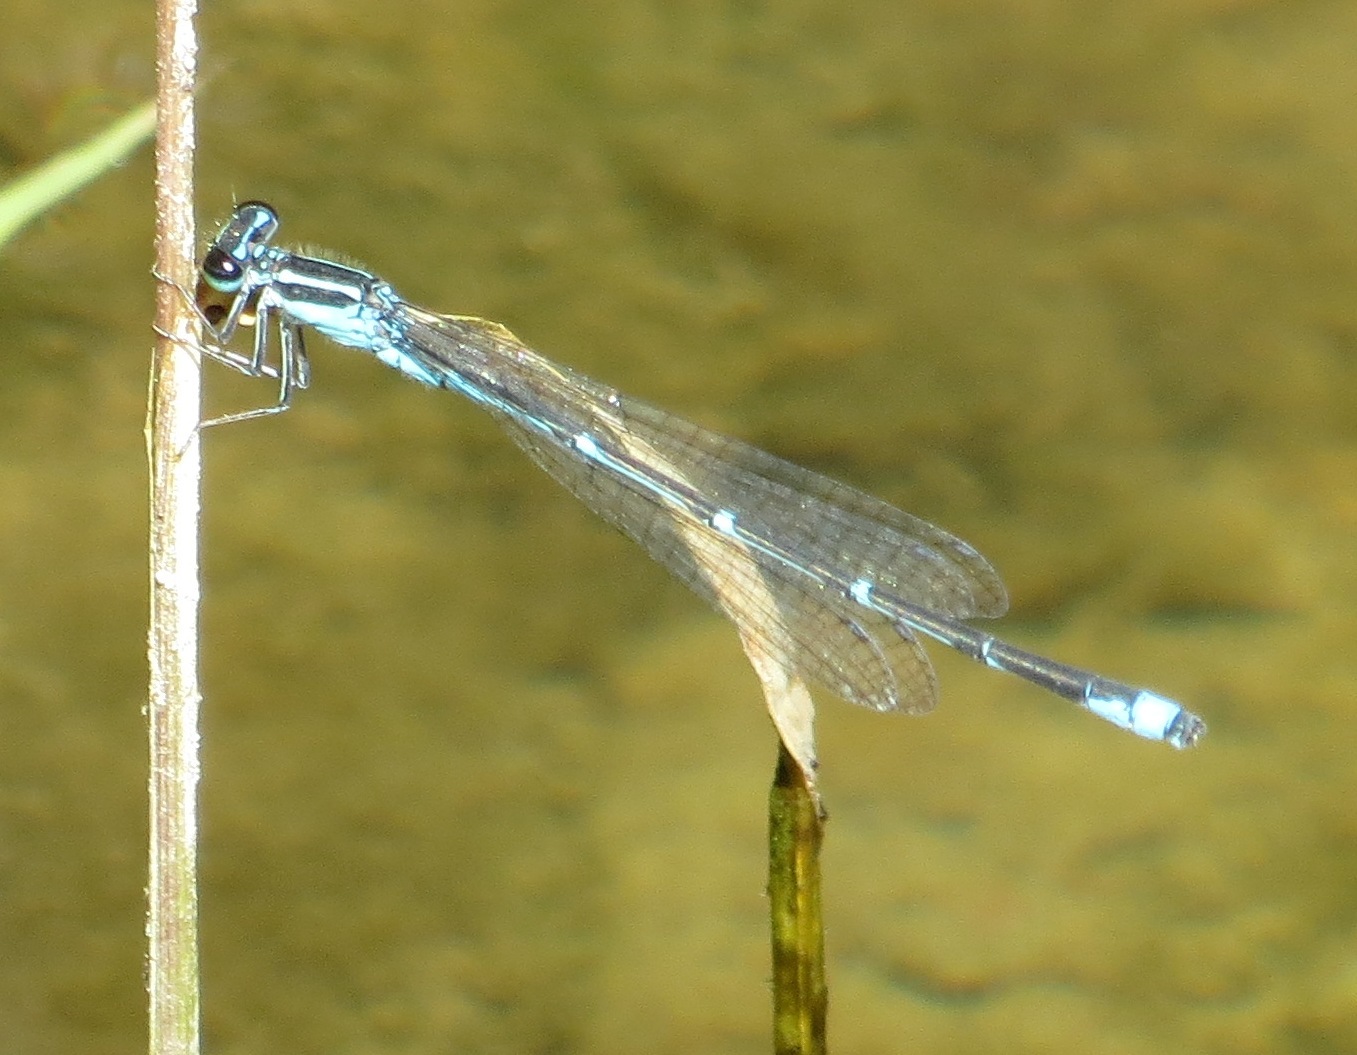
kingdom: Animalia
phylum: Arthropoda
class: Insecta
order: Odonata
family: Coenagrionidae
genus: Enallagma
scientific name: Enallagma exsulans
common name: Stream bluet
